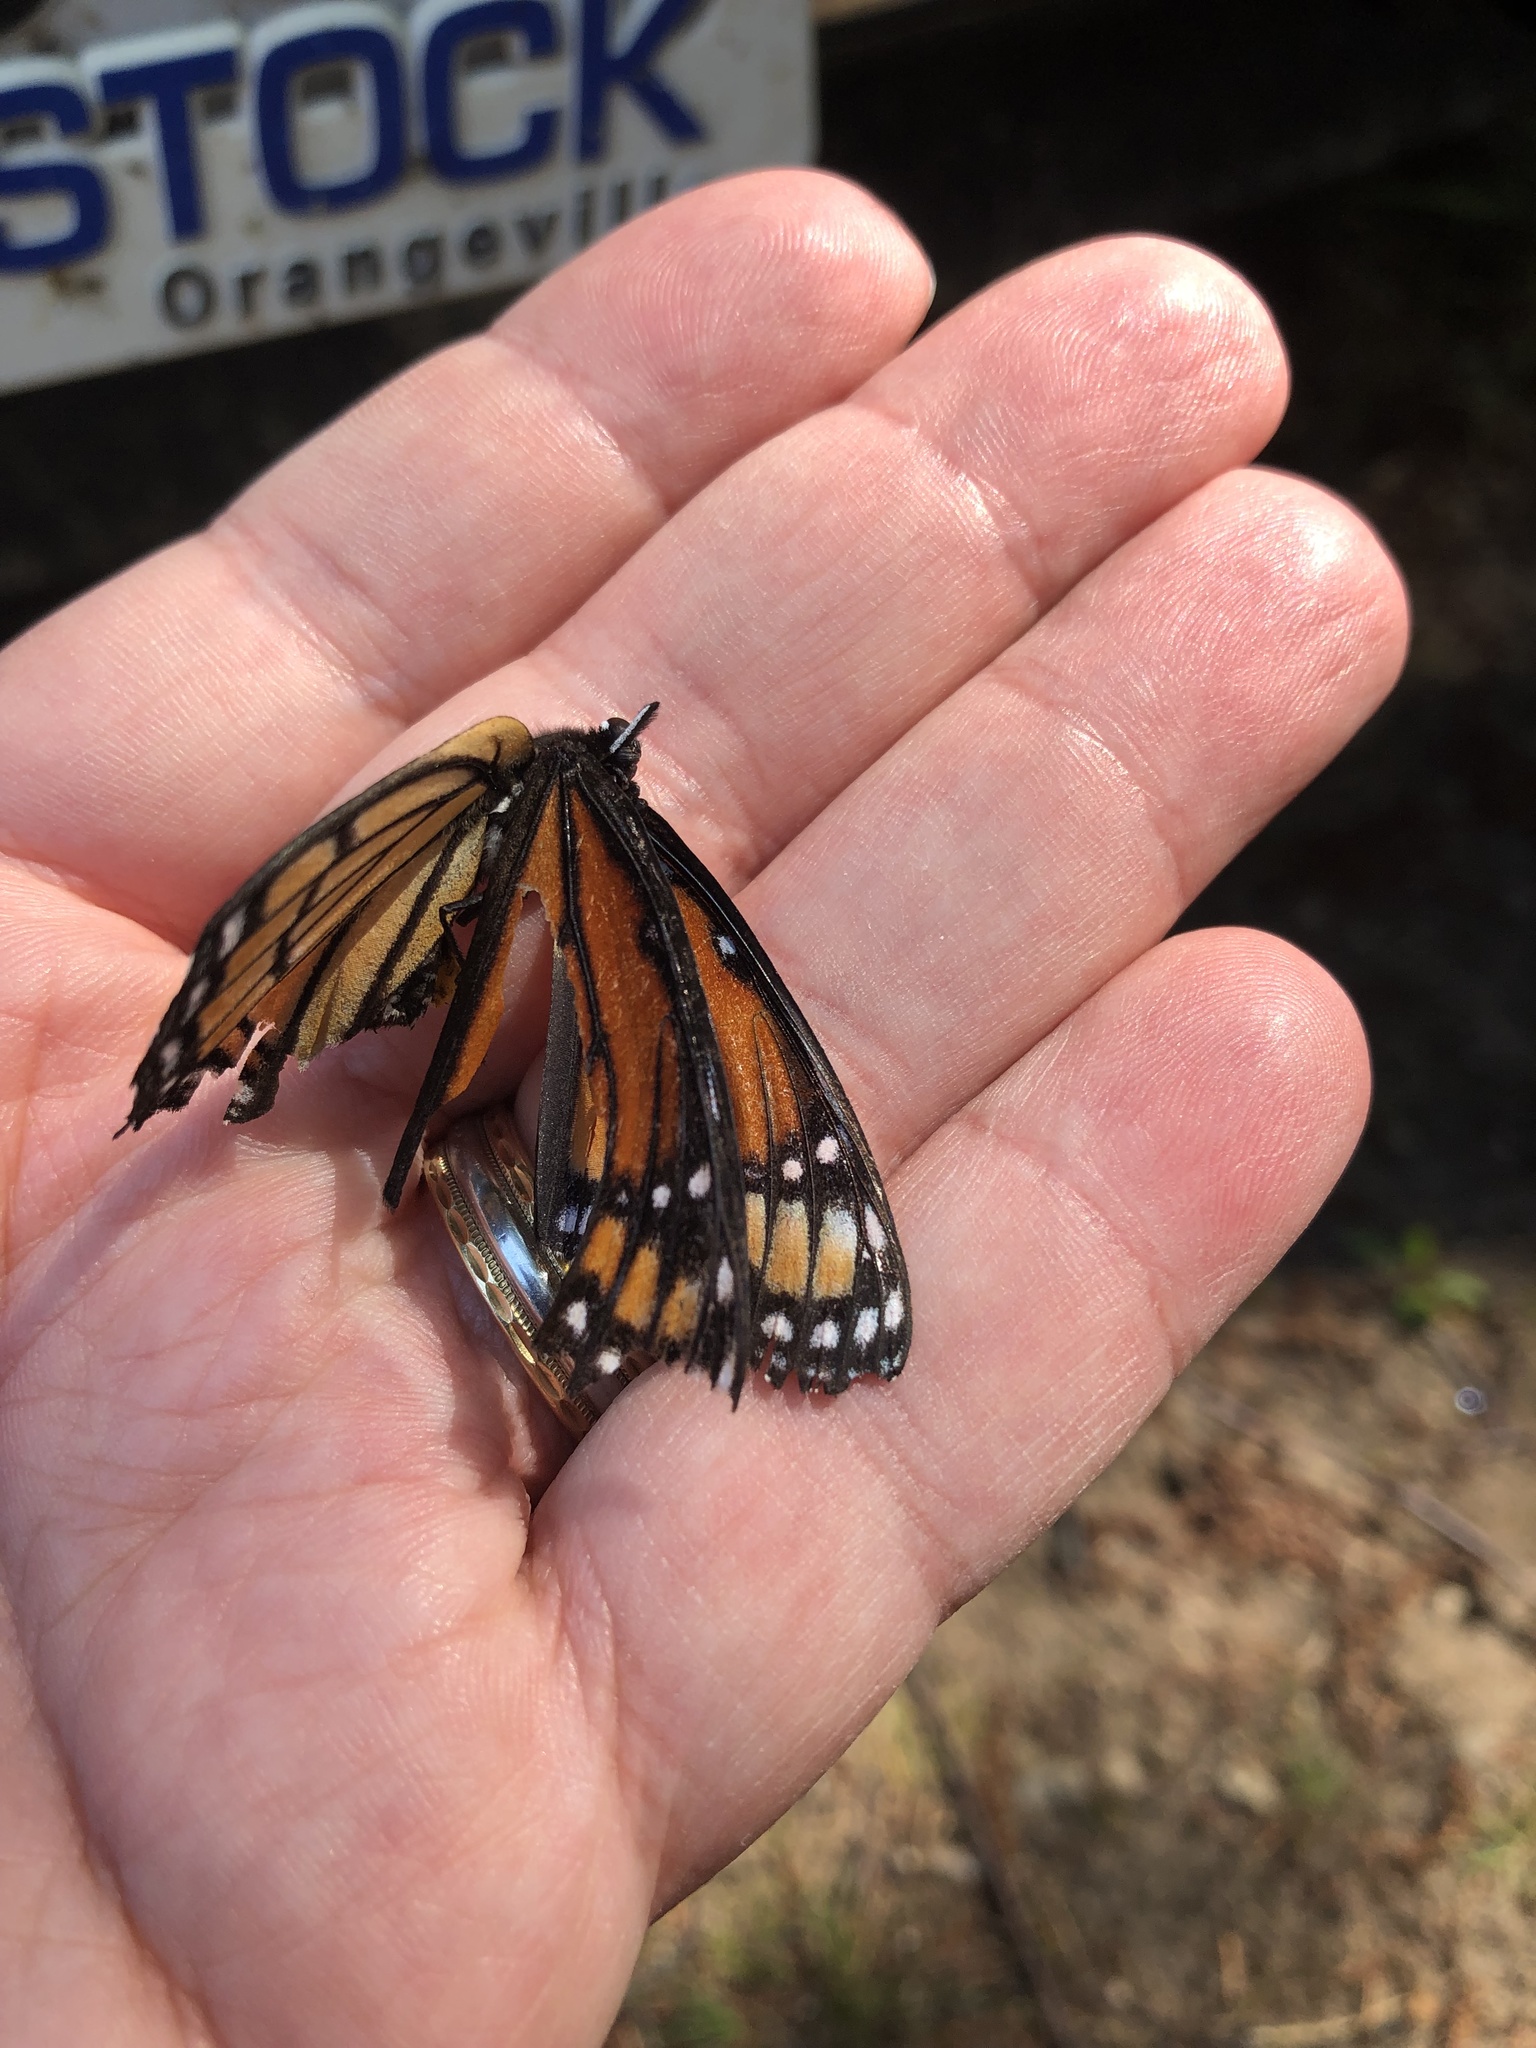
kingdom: Animalia
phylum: Arthropoda
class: Insecta
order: Lepidoptera
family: Nymphalidae
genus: Limenitis
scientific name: Limenitis archippus
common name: Viceroy
